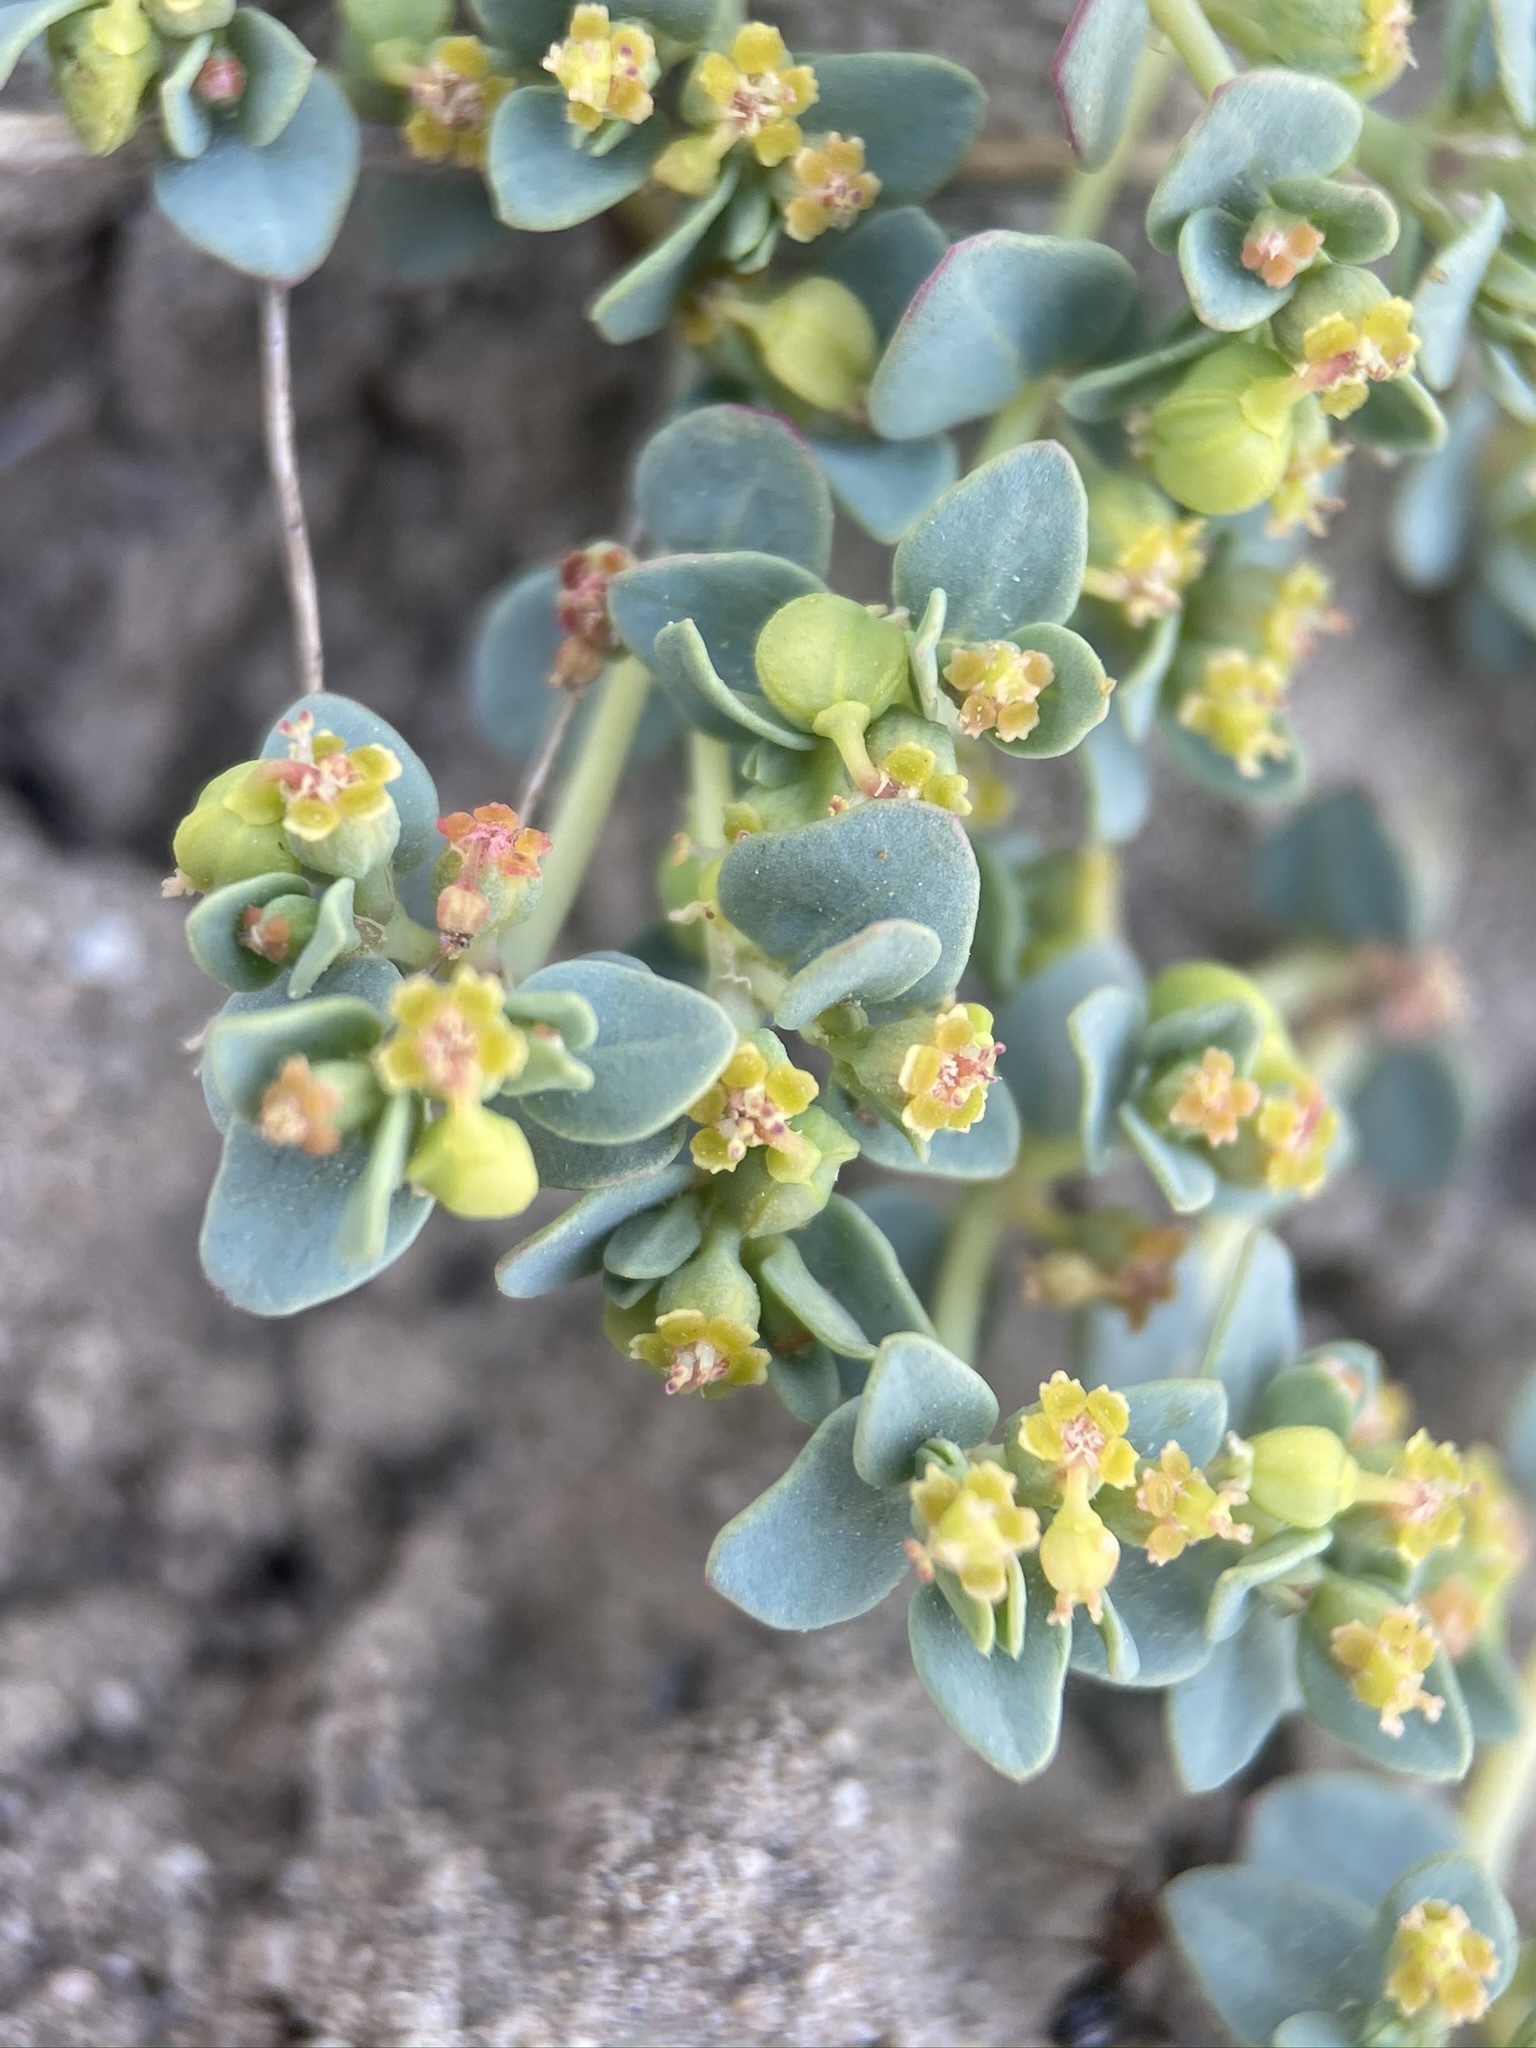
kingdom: Plantae
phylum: Tracheophyta
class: Magnoliopsida
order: Malpighiales
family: Euphorbiaceae
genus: Euphorbia
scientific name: Euphorbia fendleri
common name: Fendler's euphorbia
